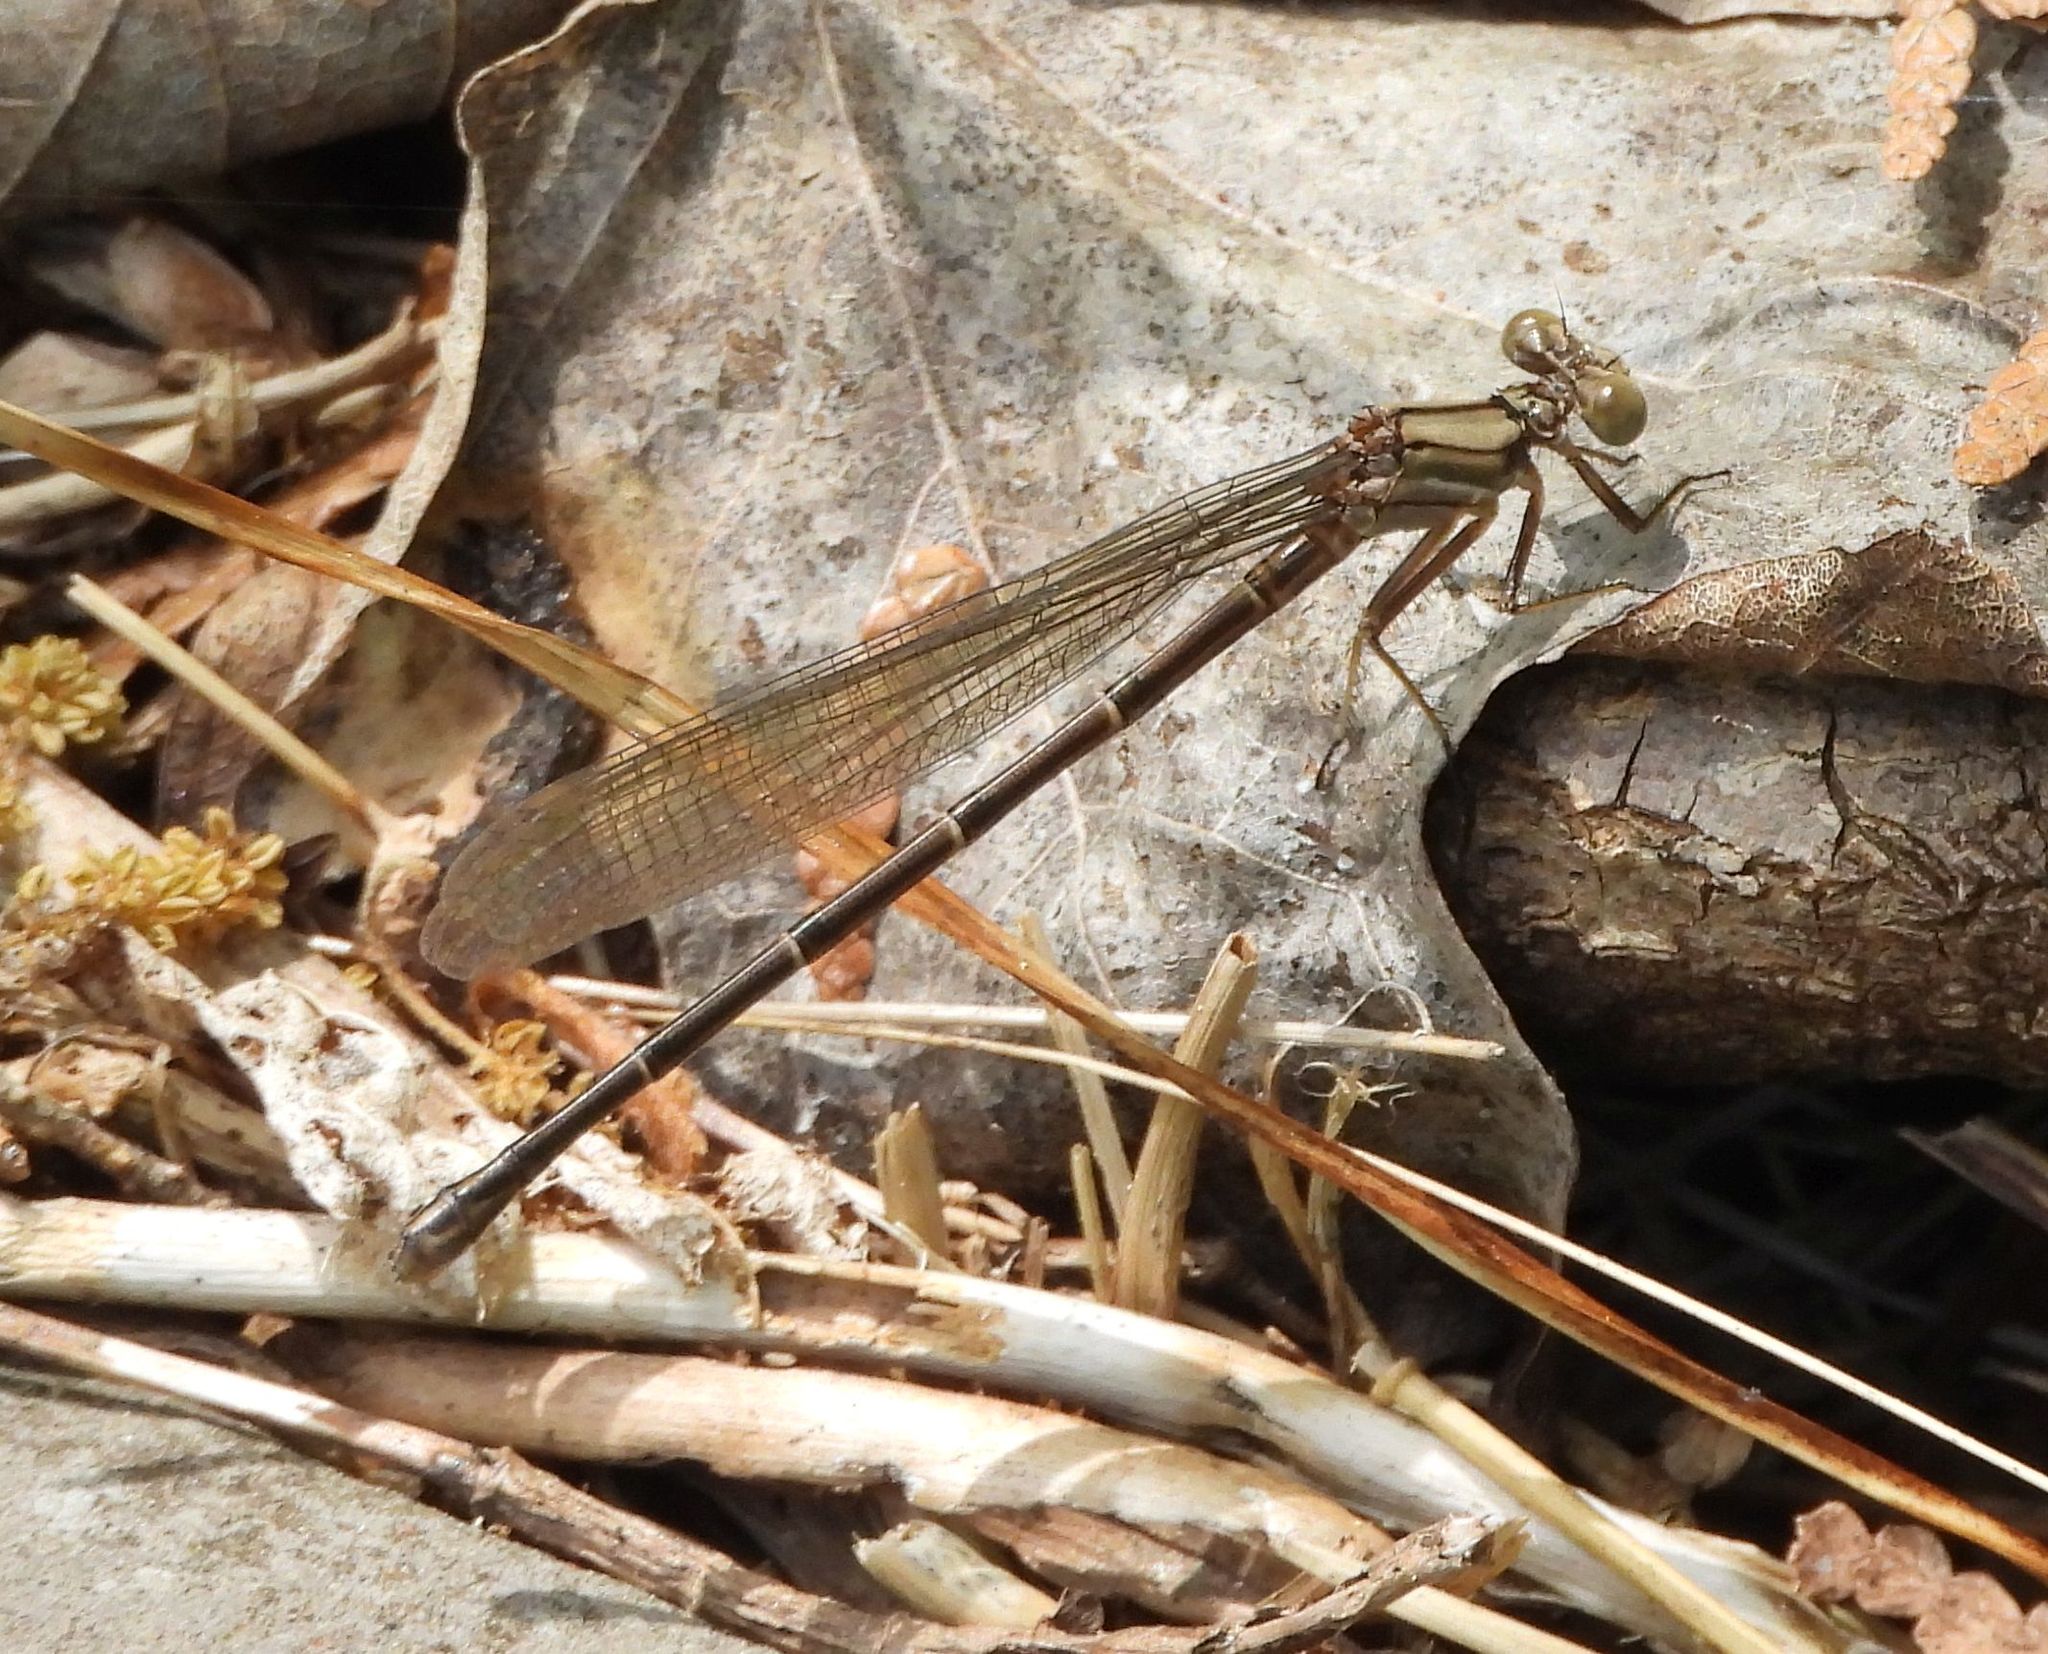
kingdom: Animalia
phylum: Arthropoda
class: Insecta
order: Odonata
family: Coenagrionidae
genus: Argia
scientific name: Argia moesta
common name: Powdered dancer
